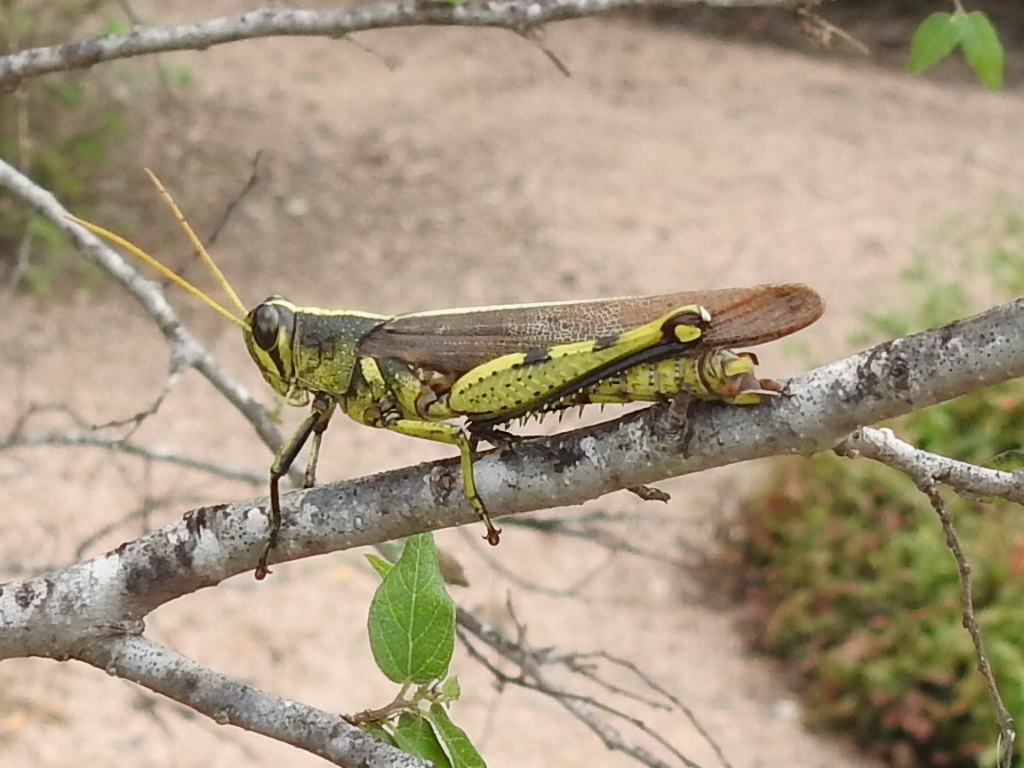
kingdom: Animalia
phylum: Arthropoda
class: Insecta
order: Orthoptera
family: Acrididae
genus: Schistocerca
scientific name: Schistocerca obscura
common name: Obscure bird grasshopper
